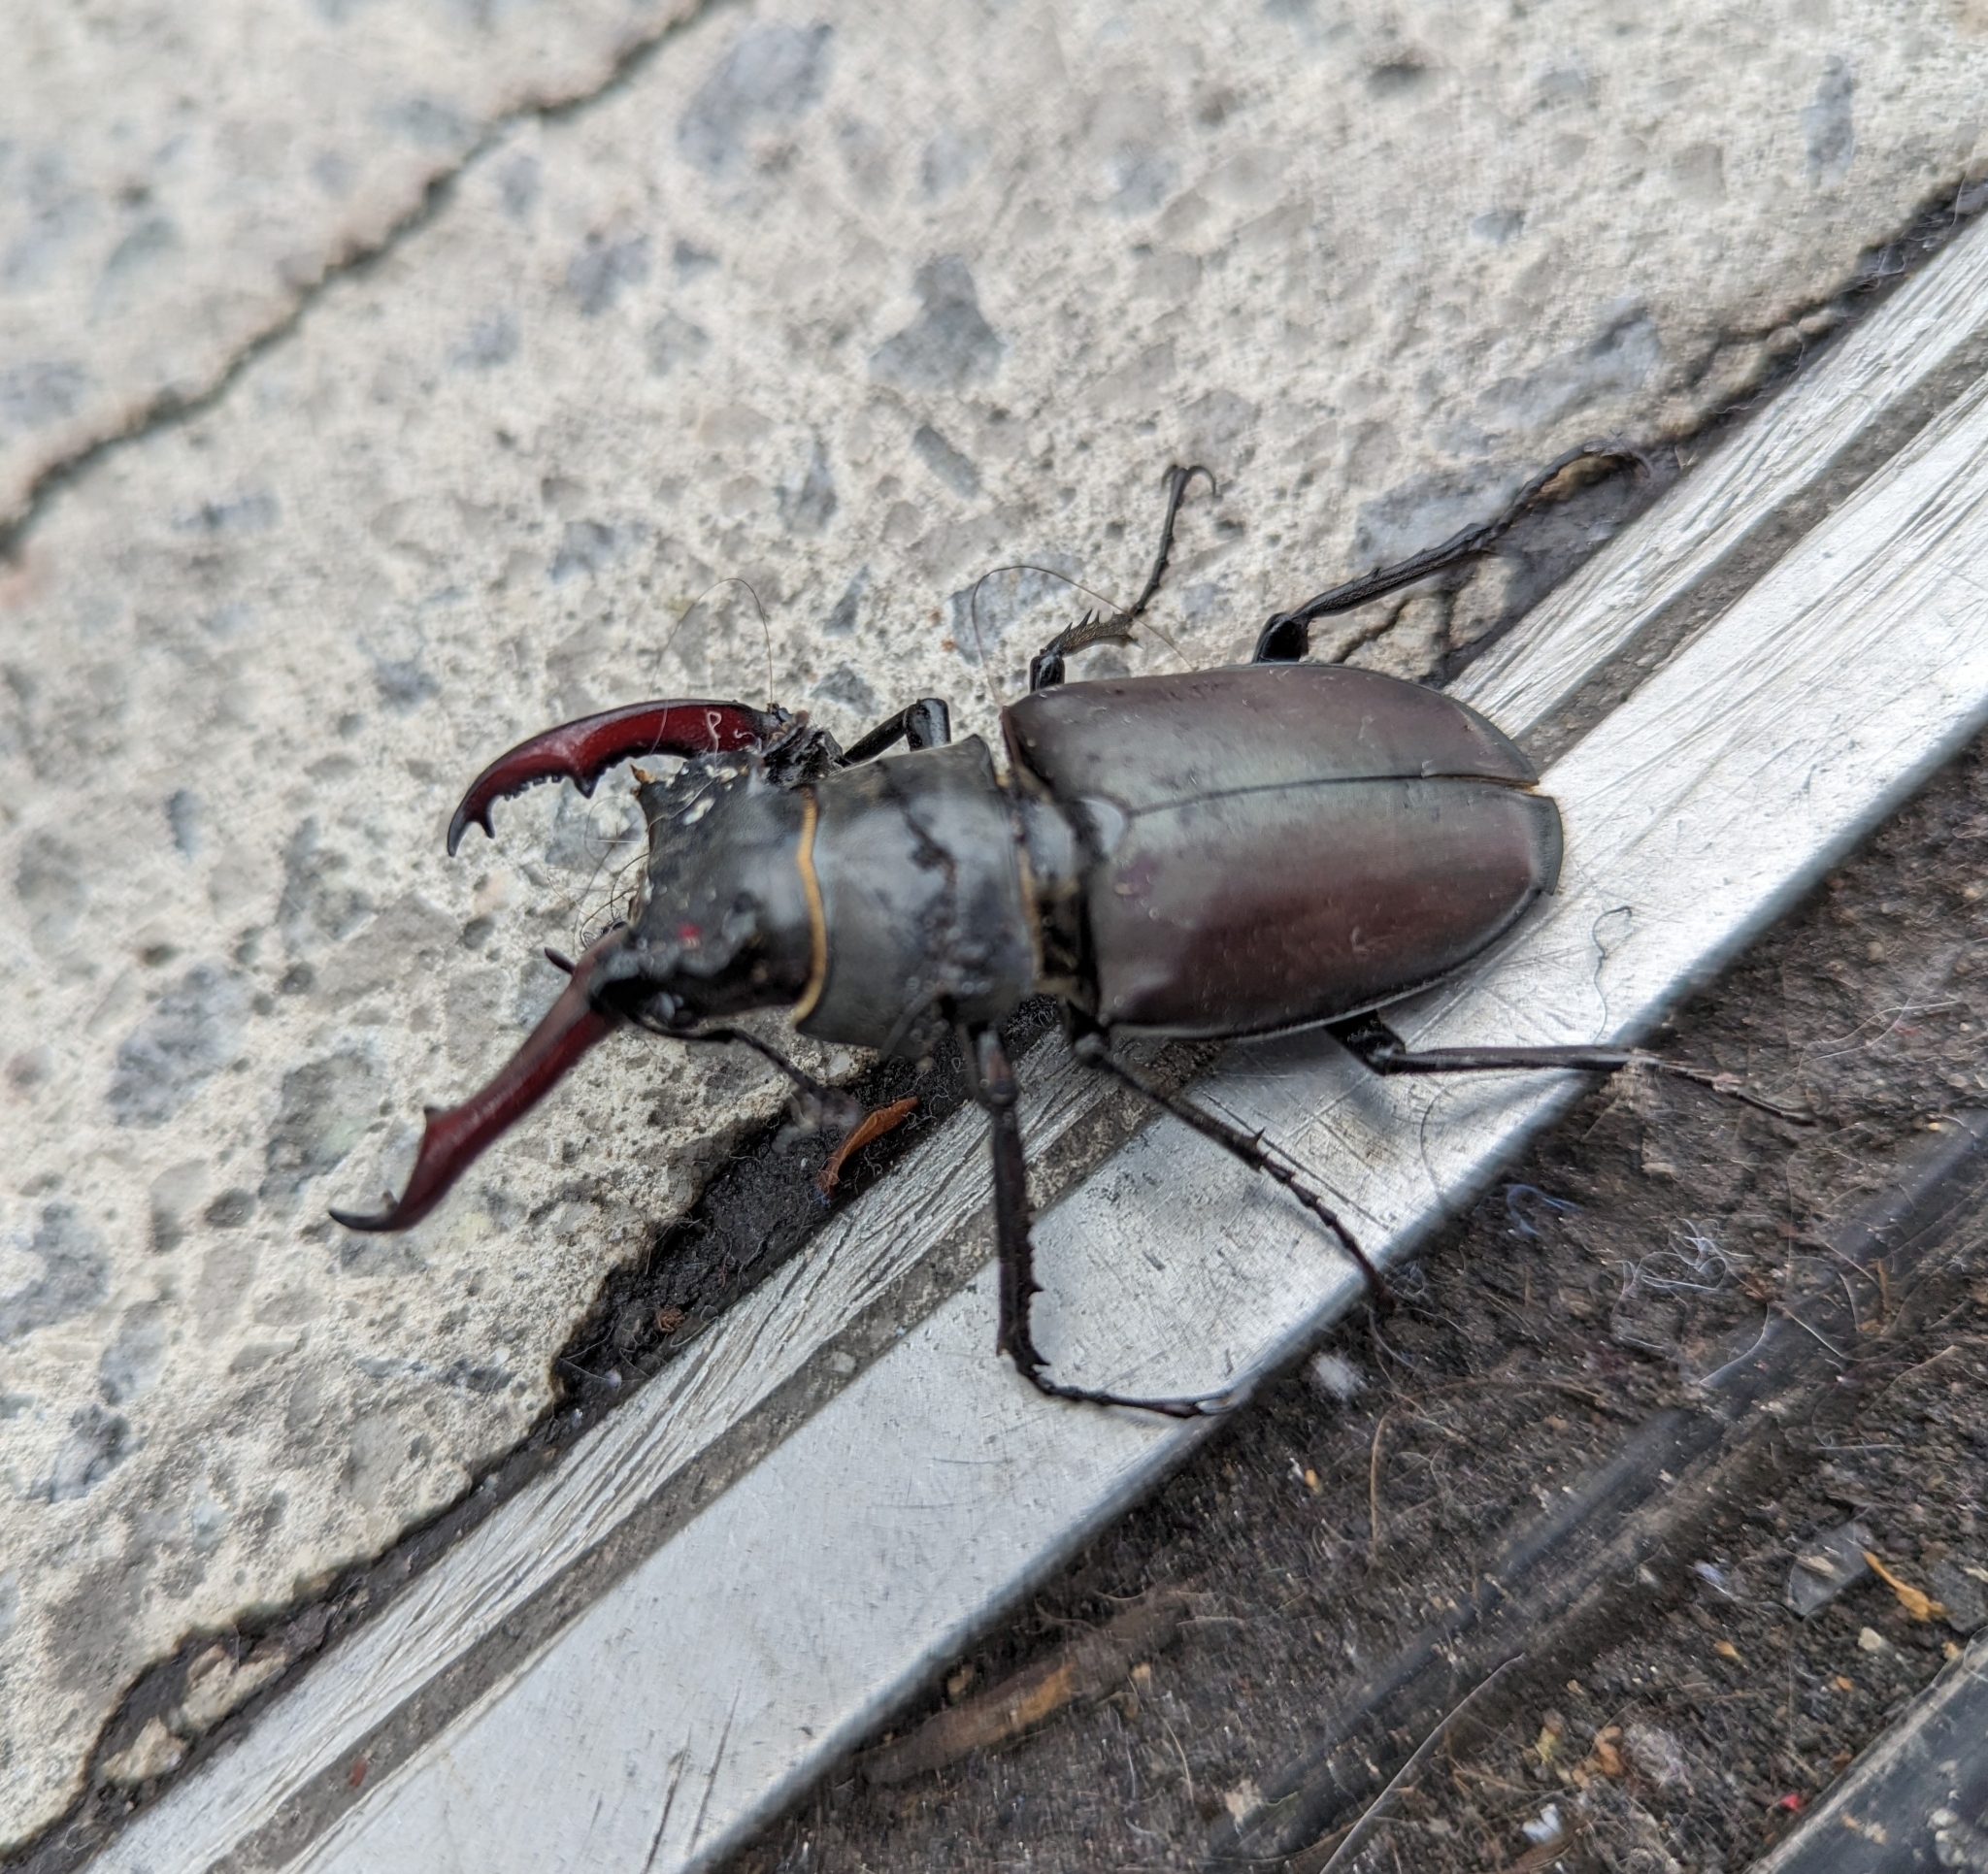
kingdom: Animalia
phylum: Arthropoda
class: Insecta
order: Coleoptera
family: Lucanidae
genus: Lucanus
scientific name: Lucanus cervus
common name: Stag beetle
